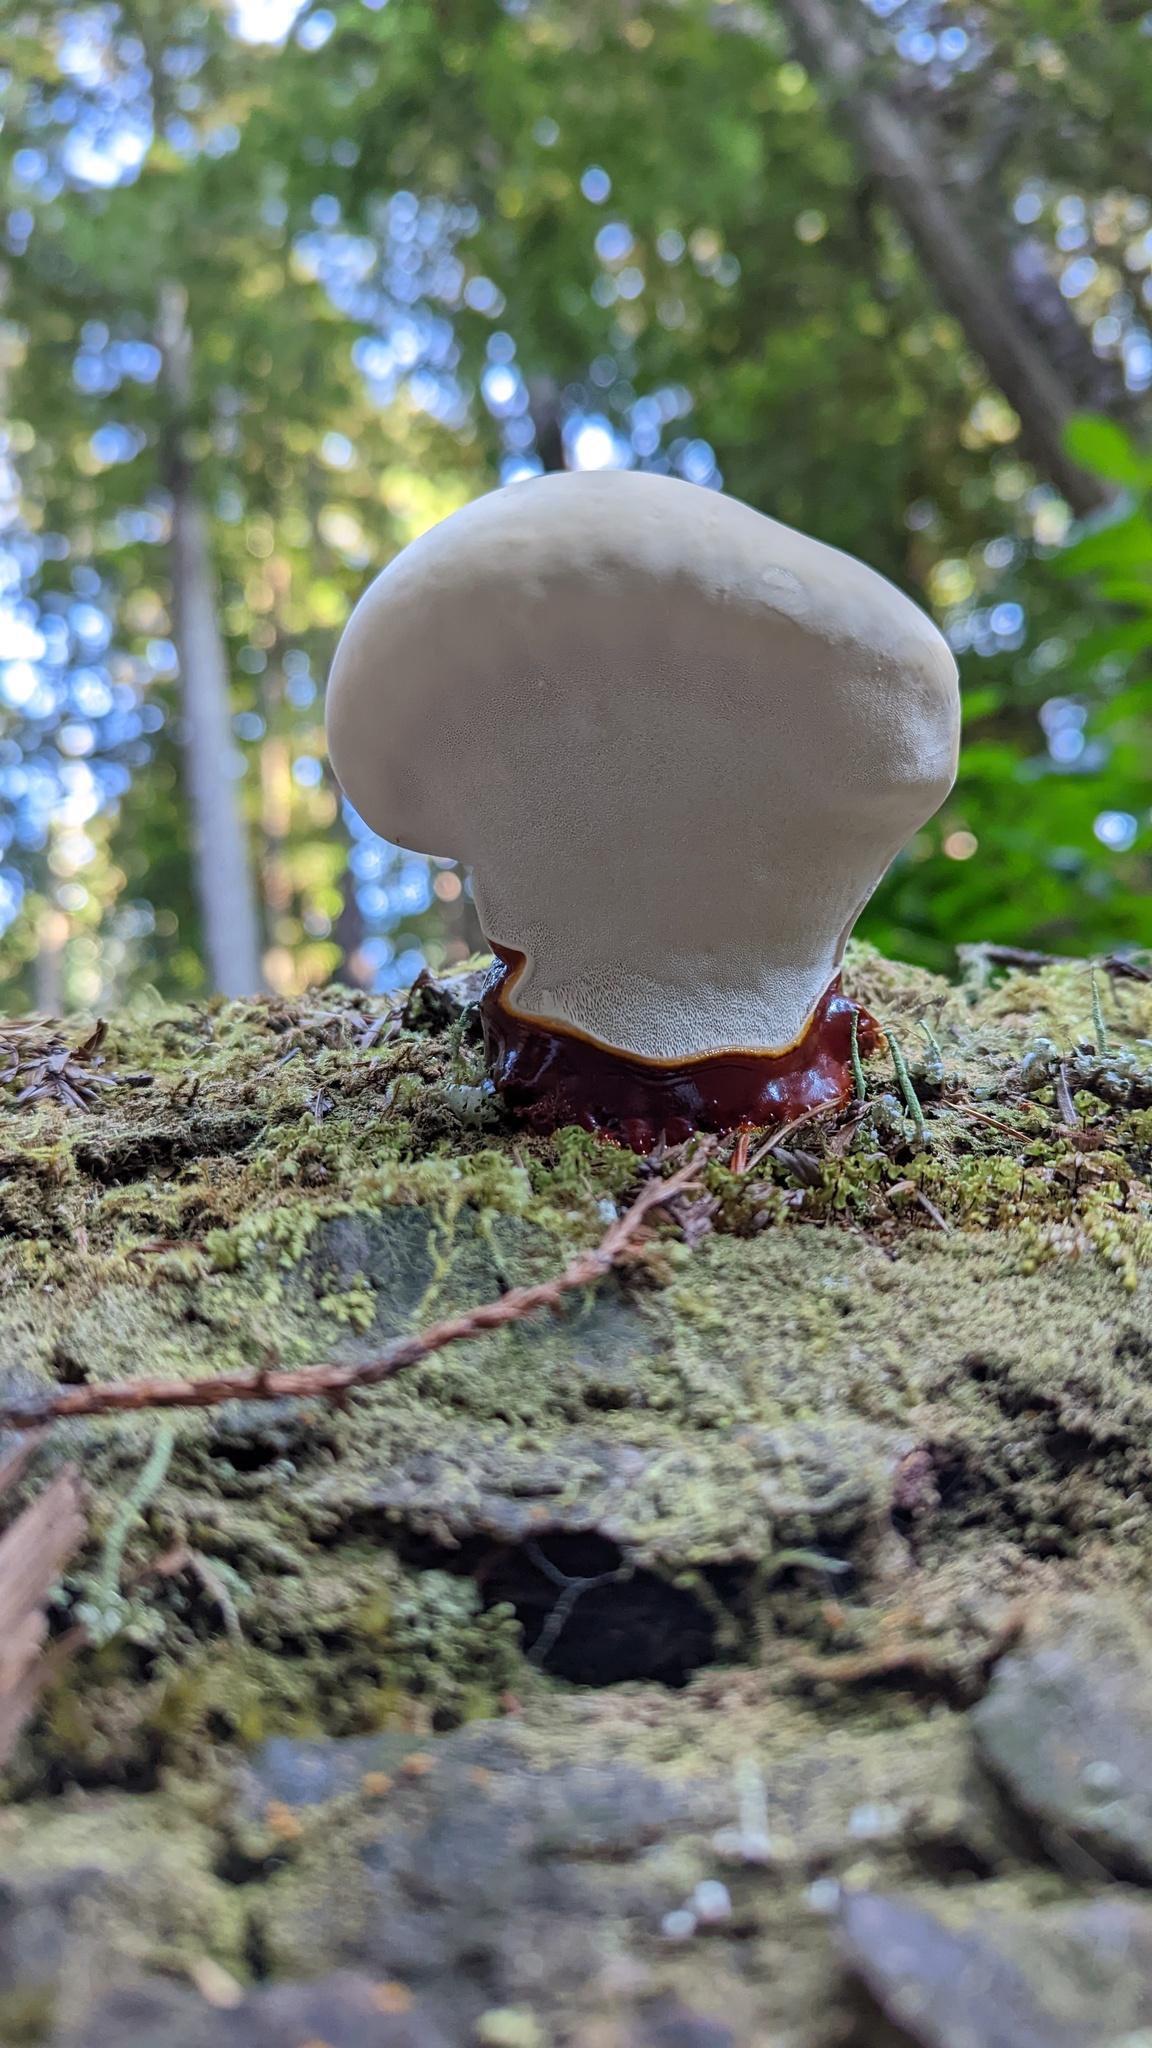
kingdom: Fungi
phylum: Basidiomycota
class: Agaricomycetes
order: Polyporales
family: Polyporaceae
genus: Ganoderma
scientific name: Ganoderma oregonense
